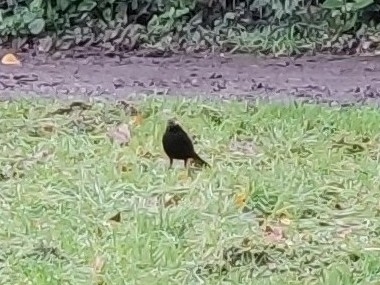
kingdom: Animalia
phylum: Chordata
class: Aves
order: Passeriformes
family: Turdidae
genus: Turdus
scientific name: Turdus merula
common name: Common blackbird
